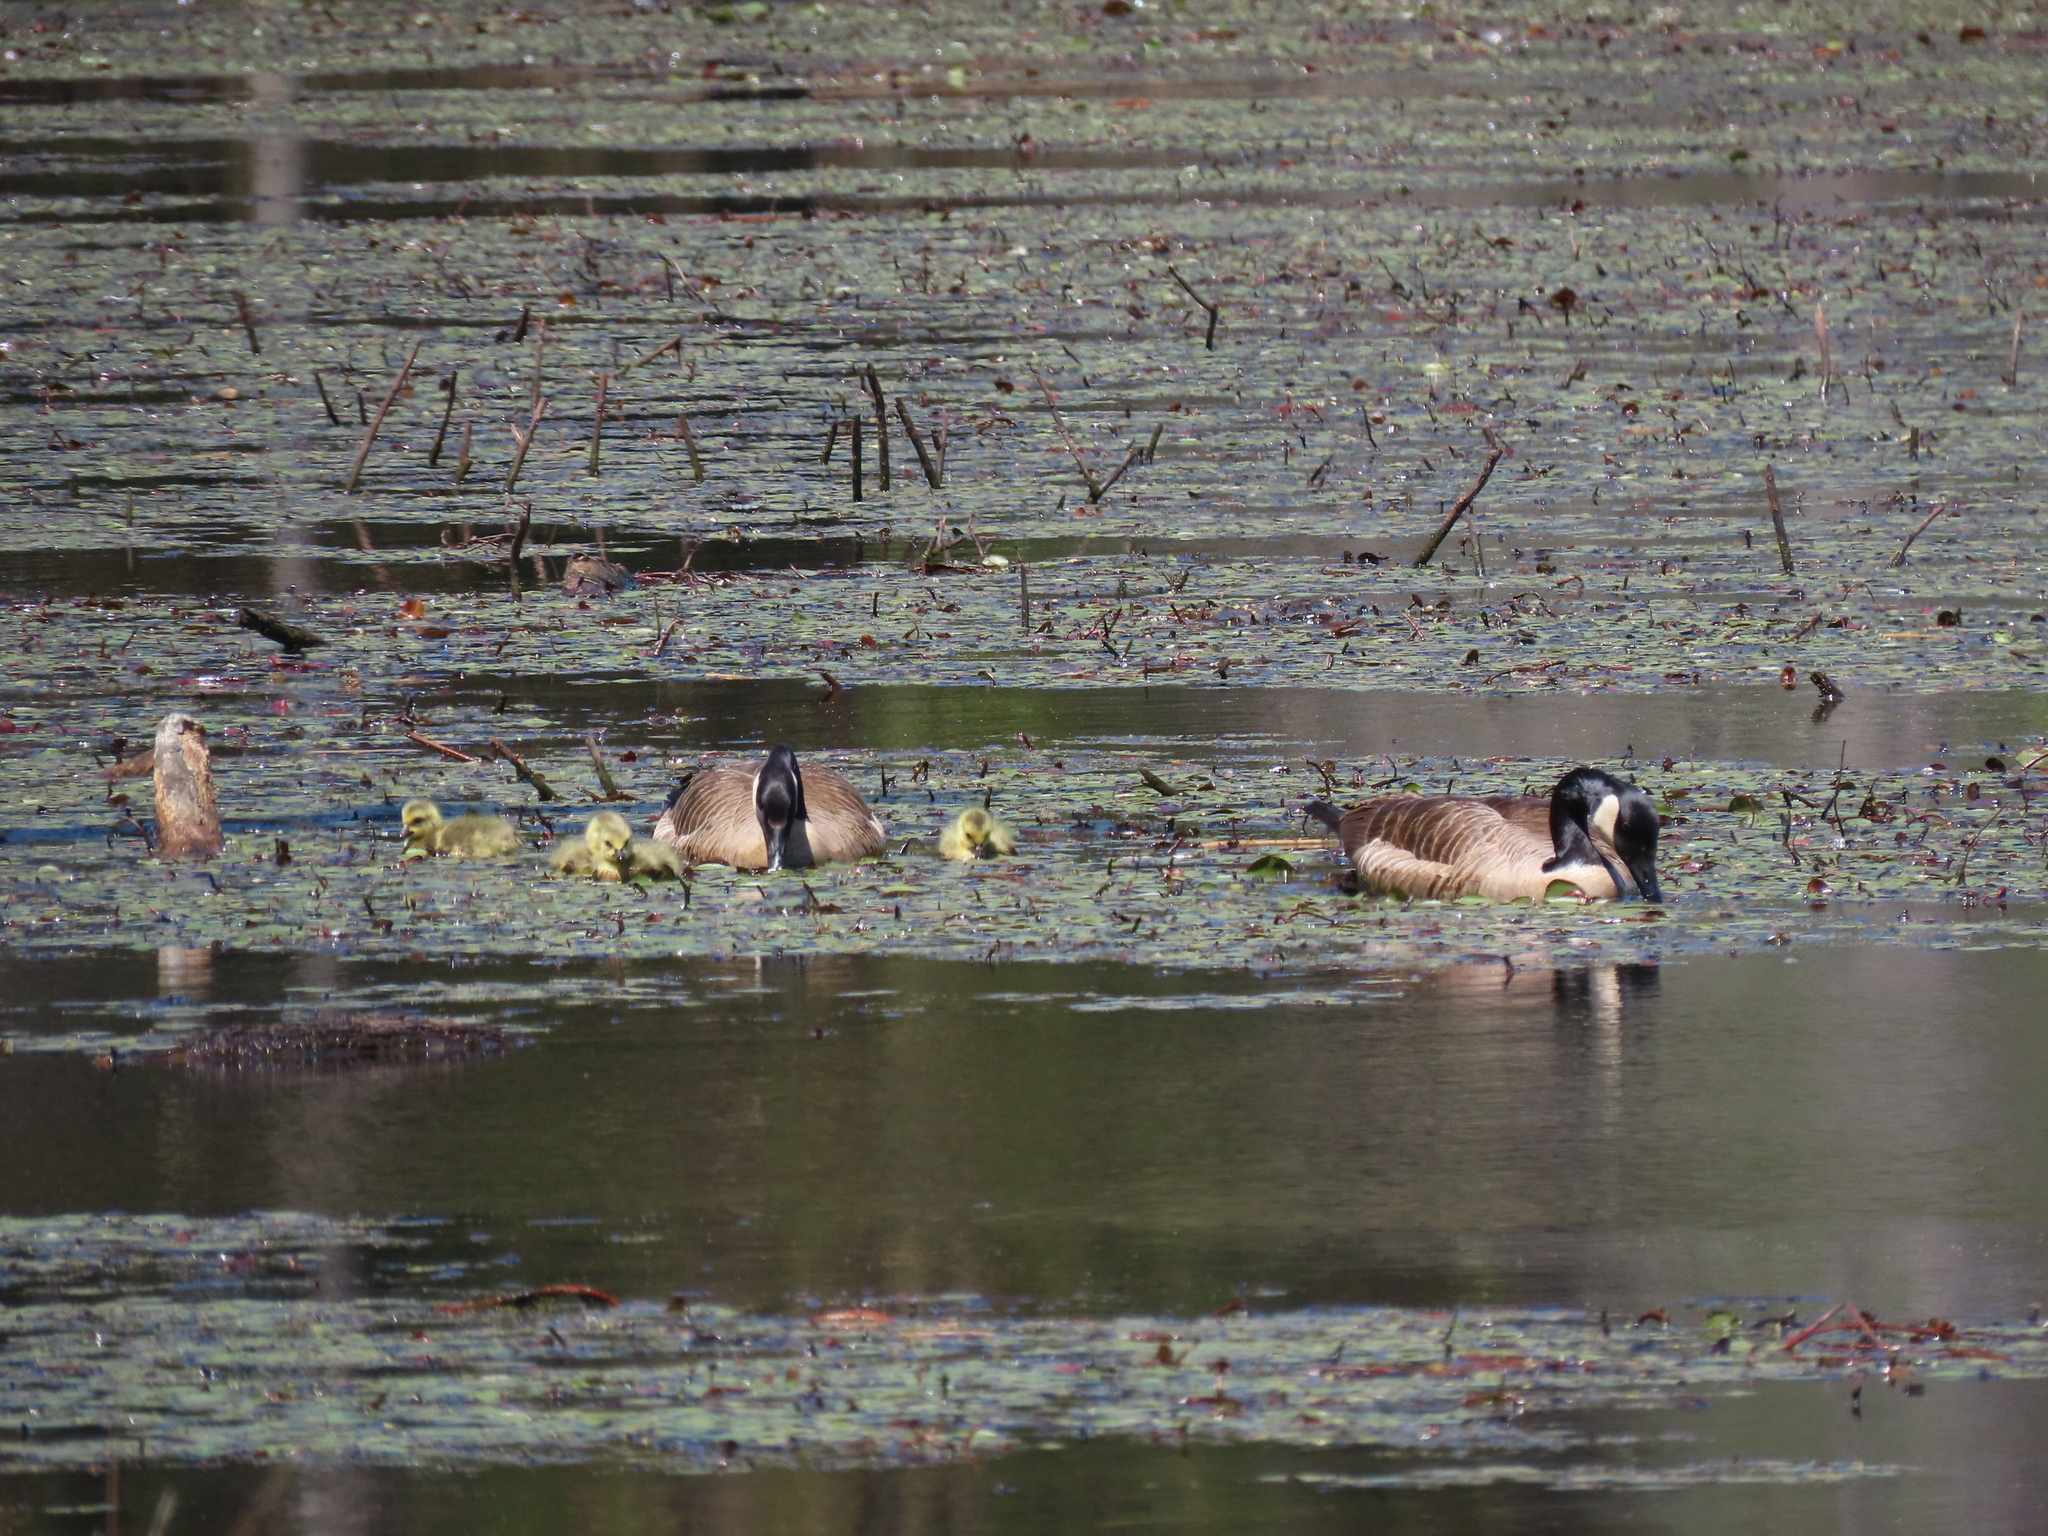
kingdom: Animalia
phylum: Chordata
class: Aves
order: Anseriformes
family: Anatidae
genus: Branta
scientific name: Branta canadensis
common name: Canada goose
